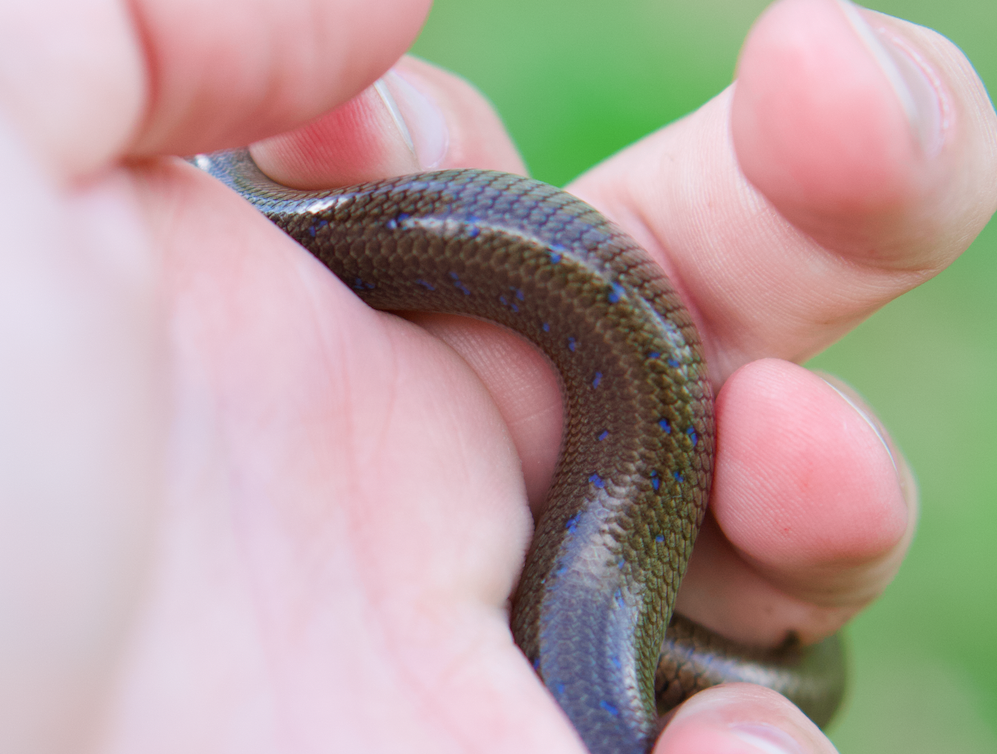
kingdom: Animalia
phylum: Chordata
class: Squamata
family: Anguidae
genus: Anguis
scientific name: Anguis colchica
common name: Slow worm
